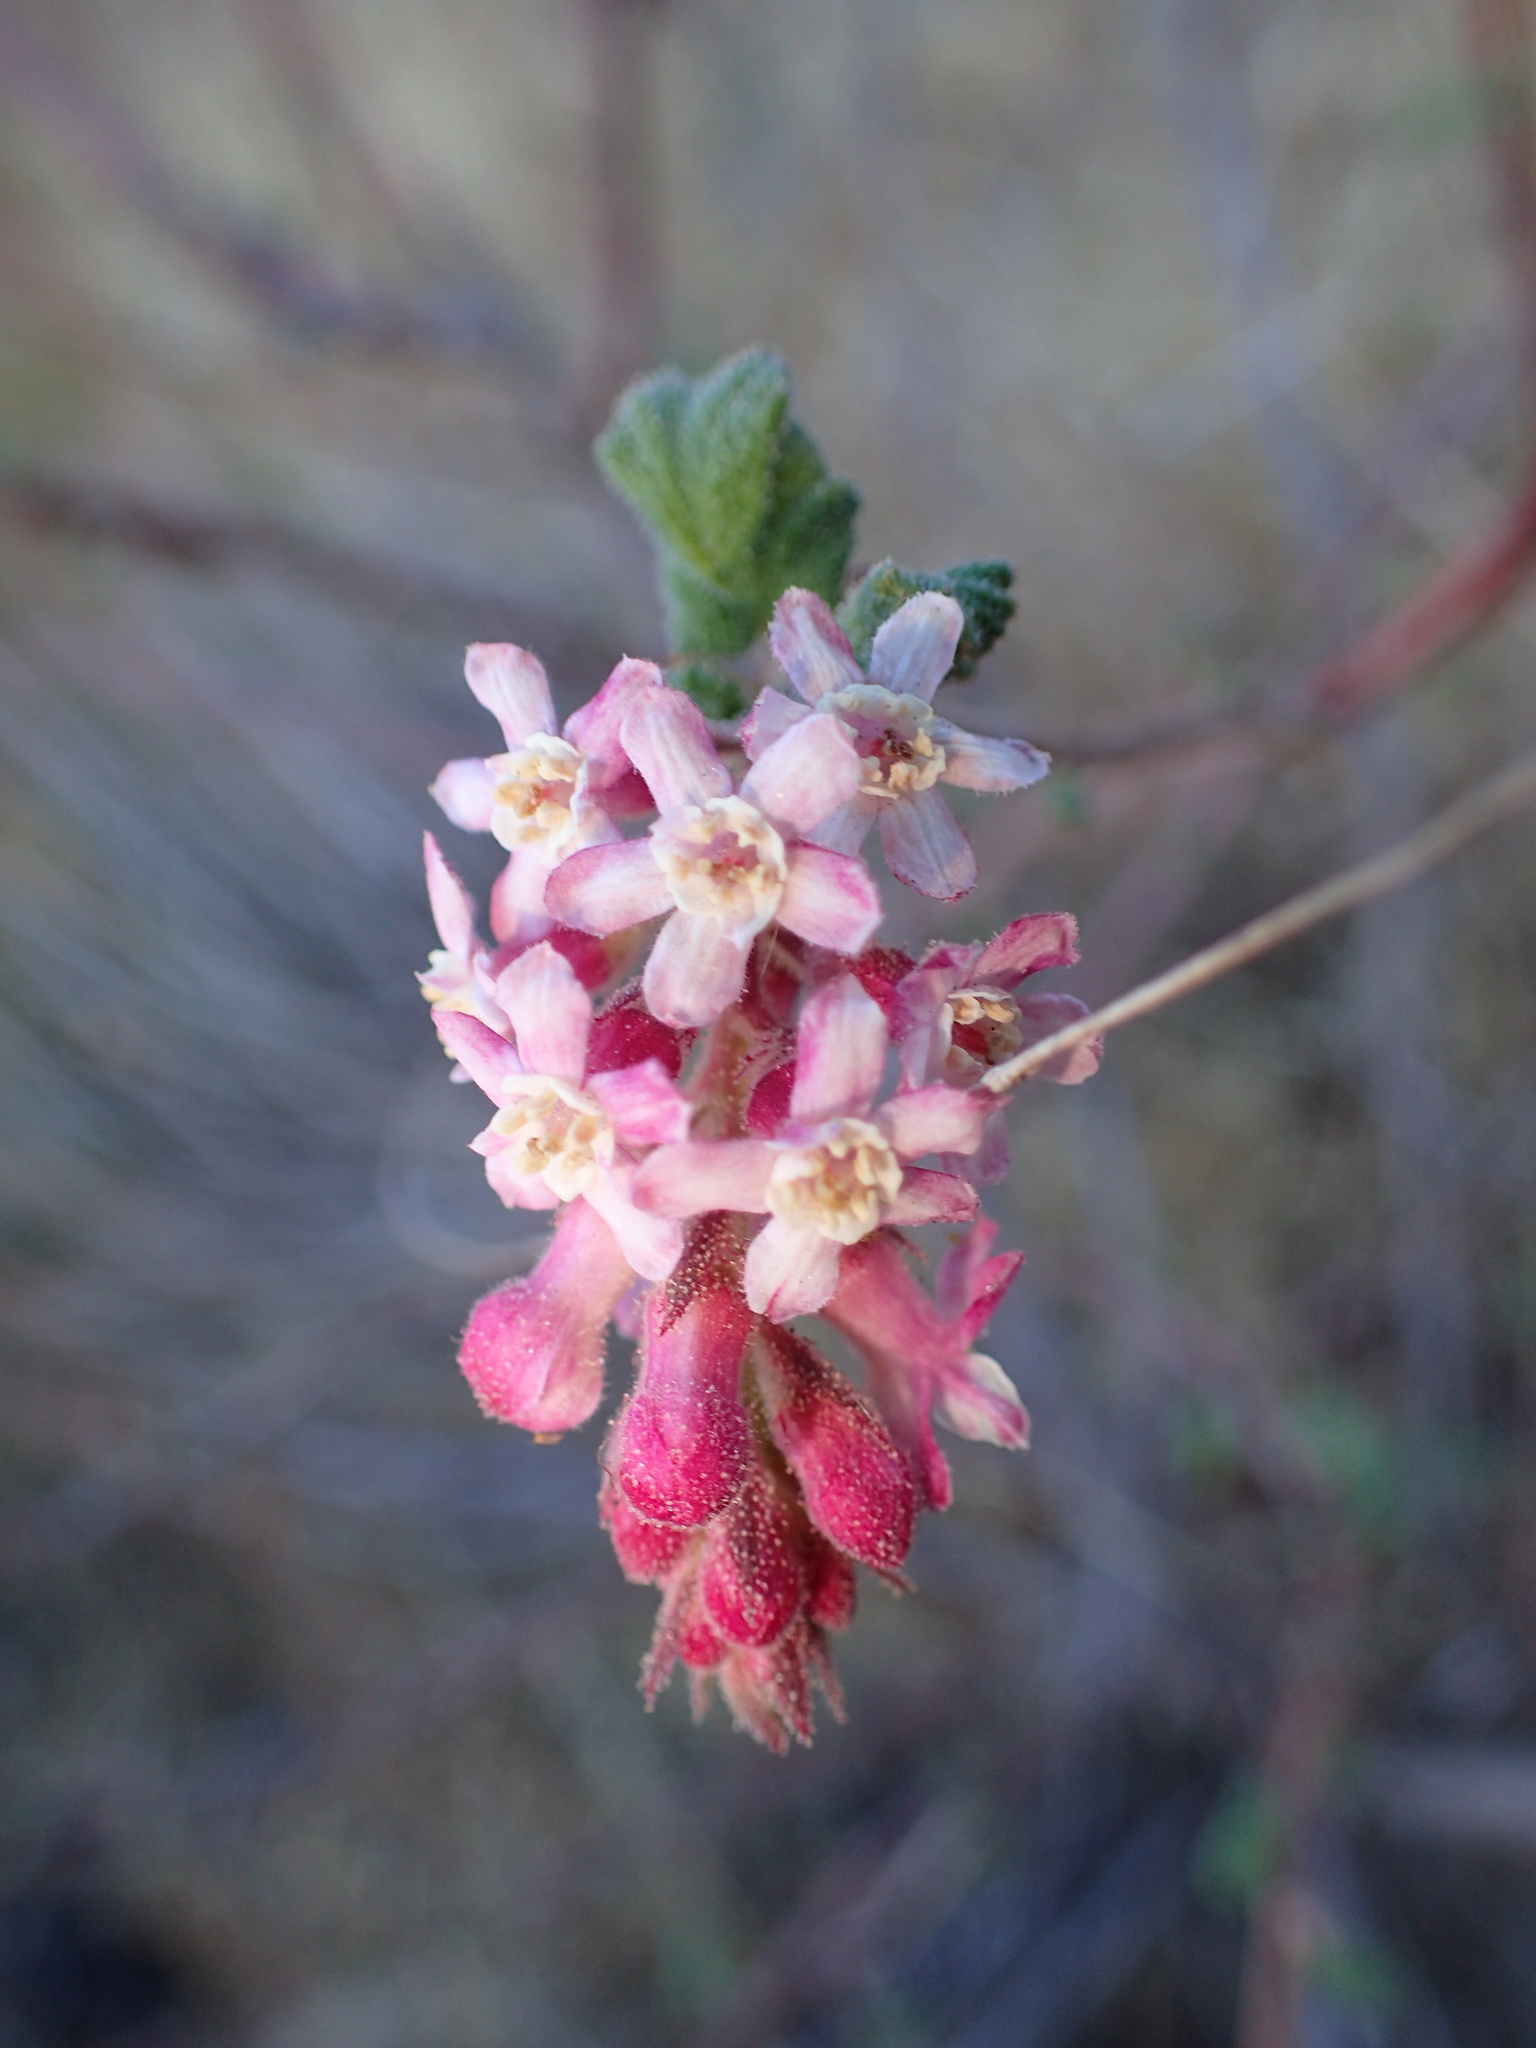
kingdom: Plantae
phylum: Tracheophyta
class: Magnoliopsida
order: Saxifragales
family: Grossulariaceae
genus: Ribes
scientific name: Ribes malvaceum
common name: Chaparral currant
